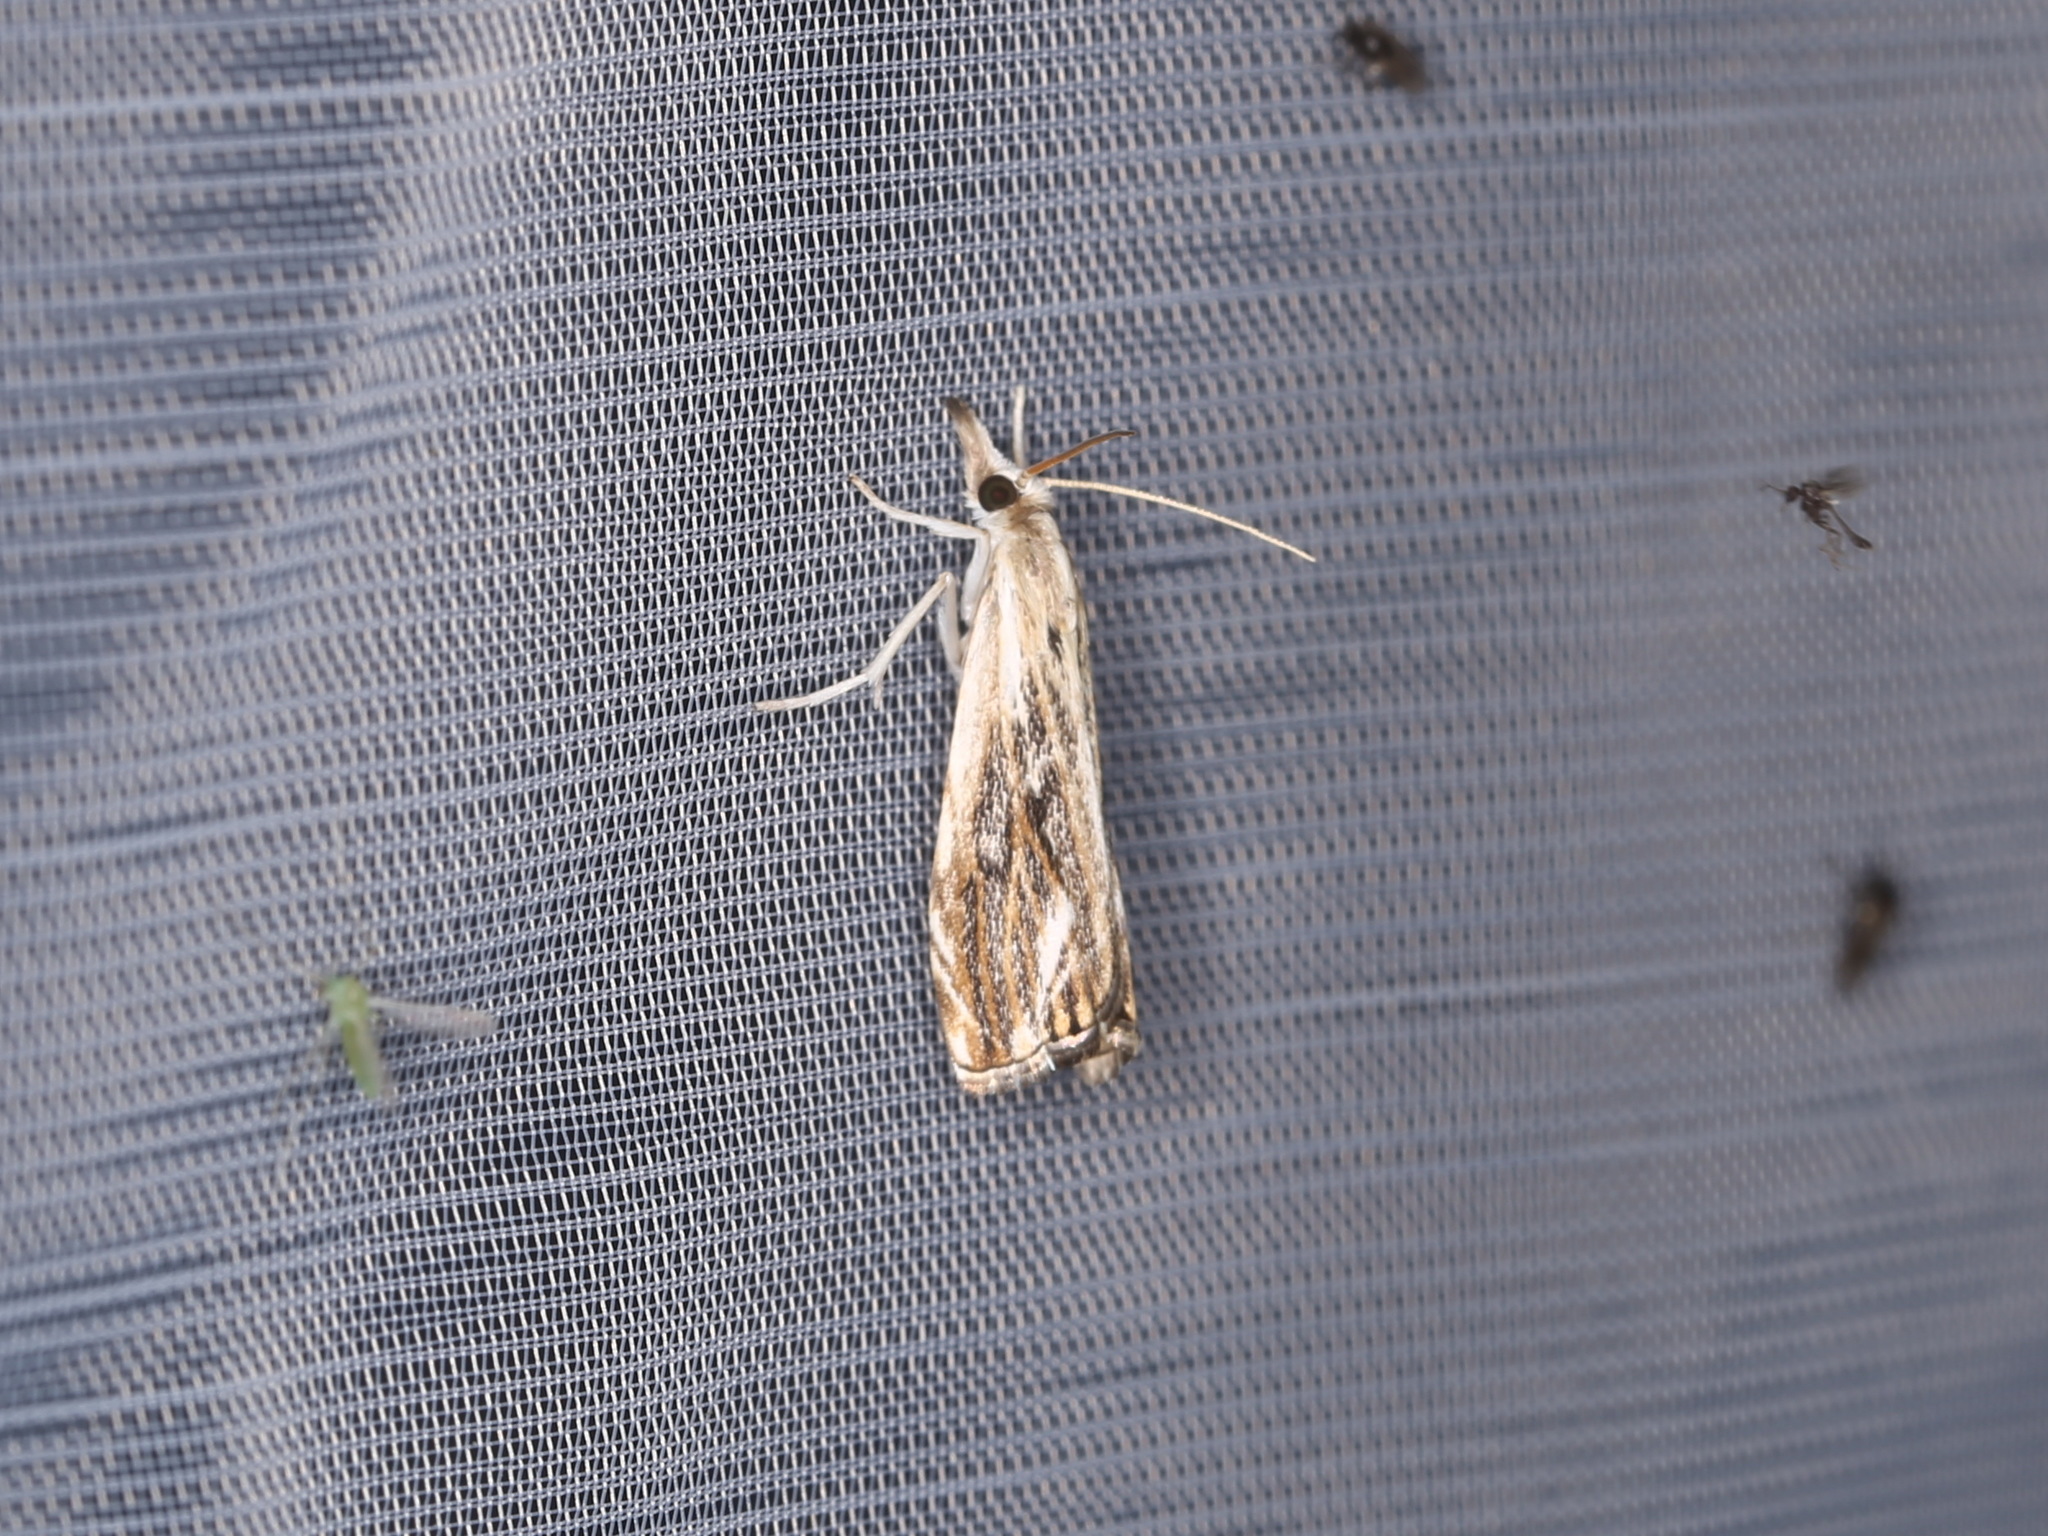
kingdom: Animalia
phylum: Arthropoda
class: Insecta
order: Lepidoptera
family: Crambidae
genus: Catoptria
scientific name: Catoptria verellus
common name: Marbled grass-veneer
